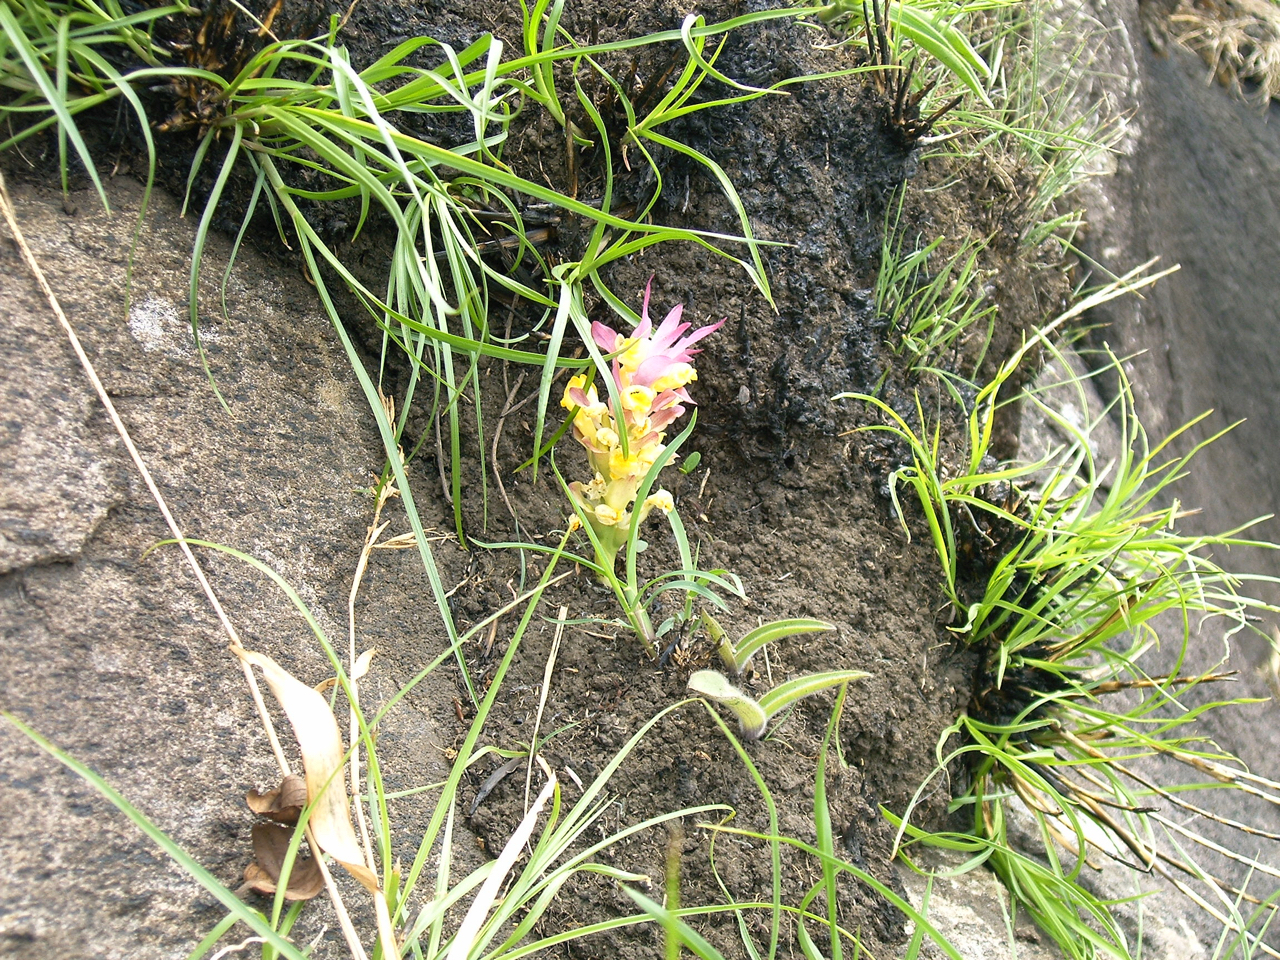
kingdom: Plantae
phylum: Tracheophyta
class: Liliopsida
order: Zingiberales
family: Zingiberaceae
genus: Curcuma
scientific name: Curcuma pseudomontana
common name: Hill turmeric
